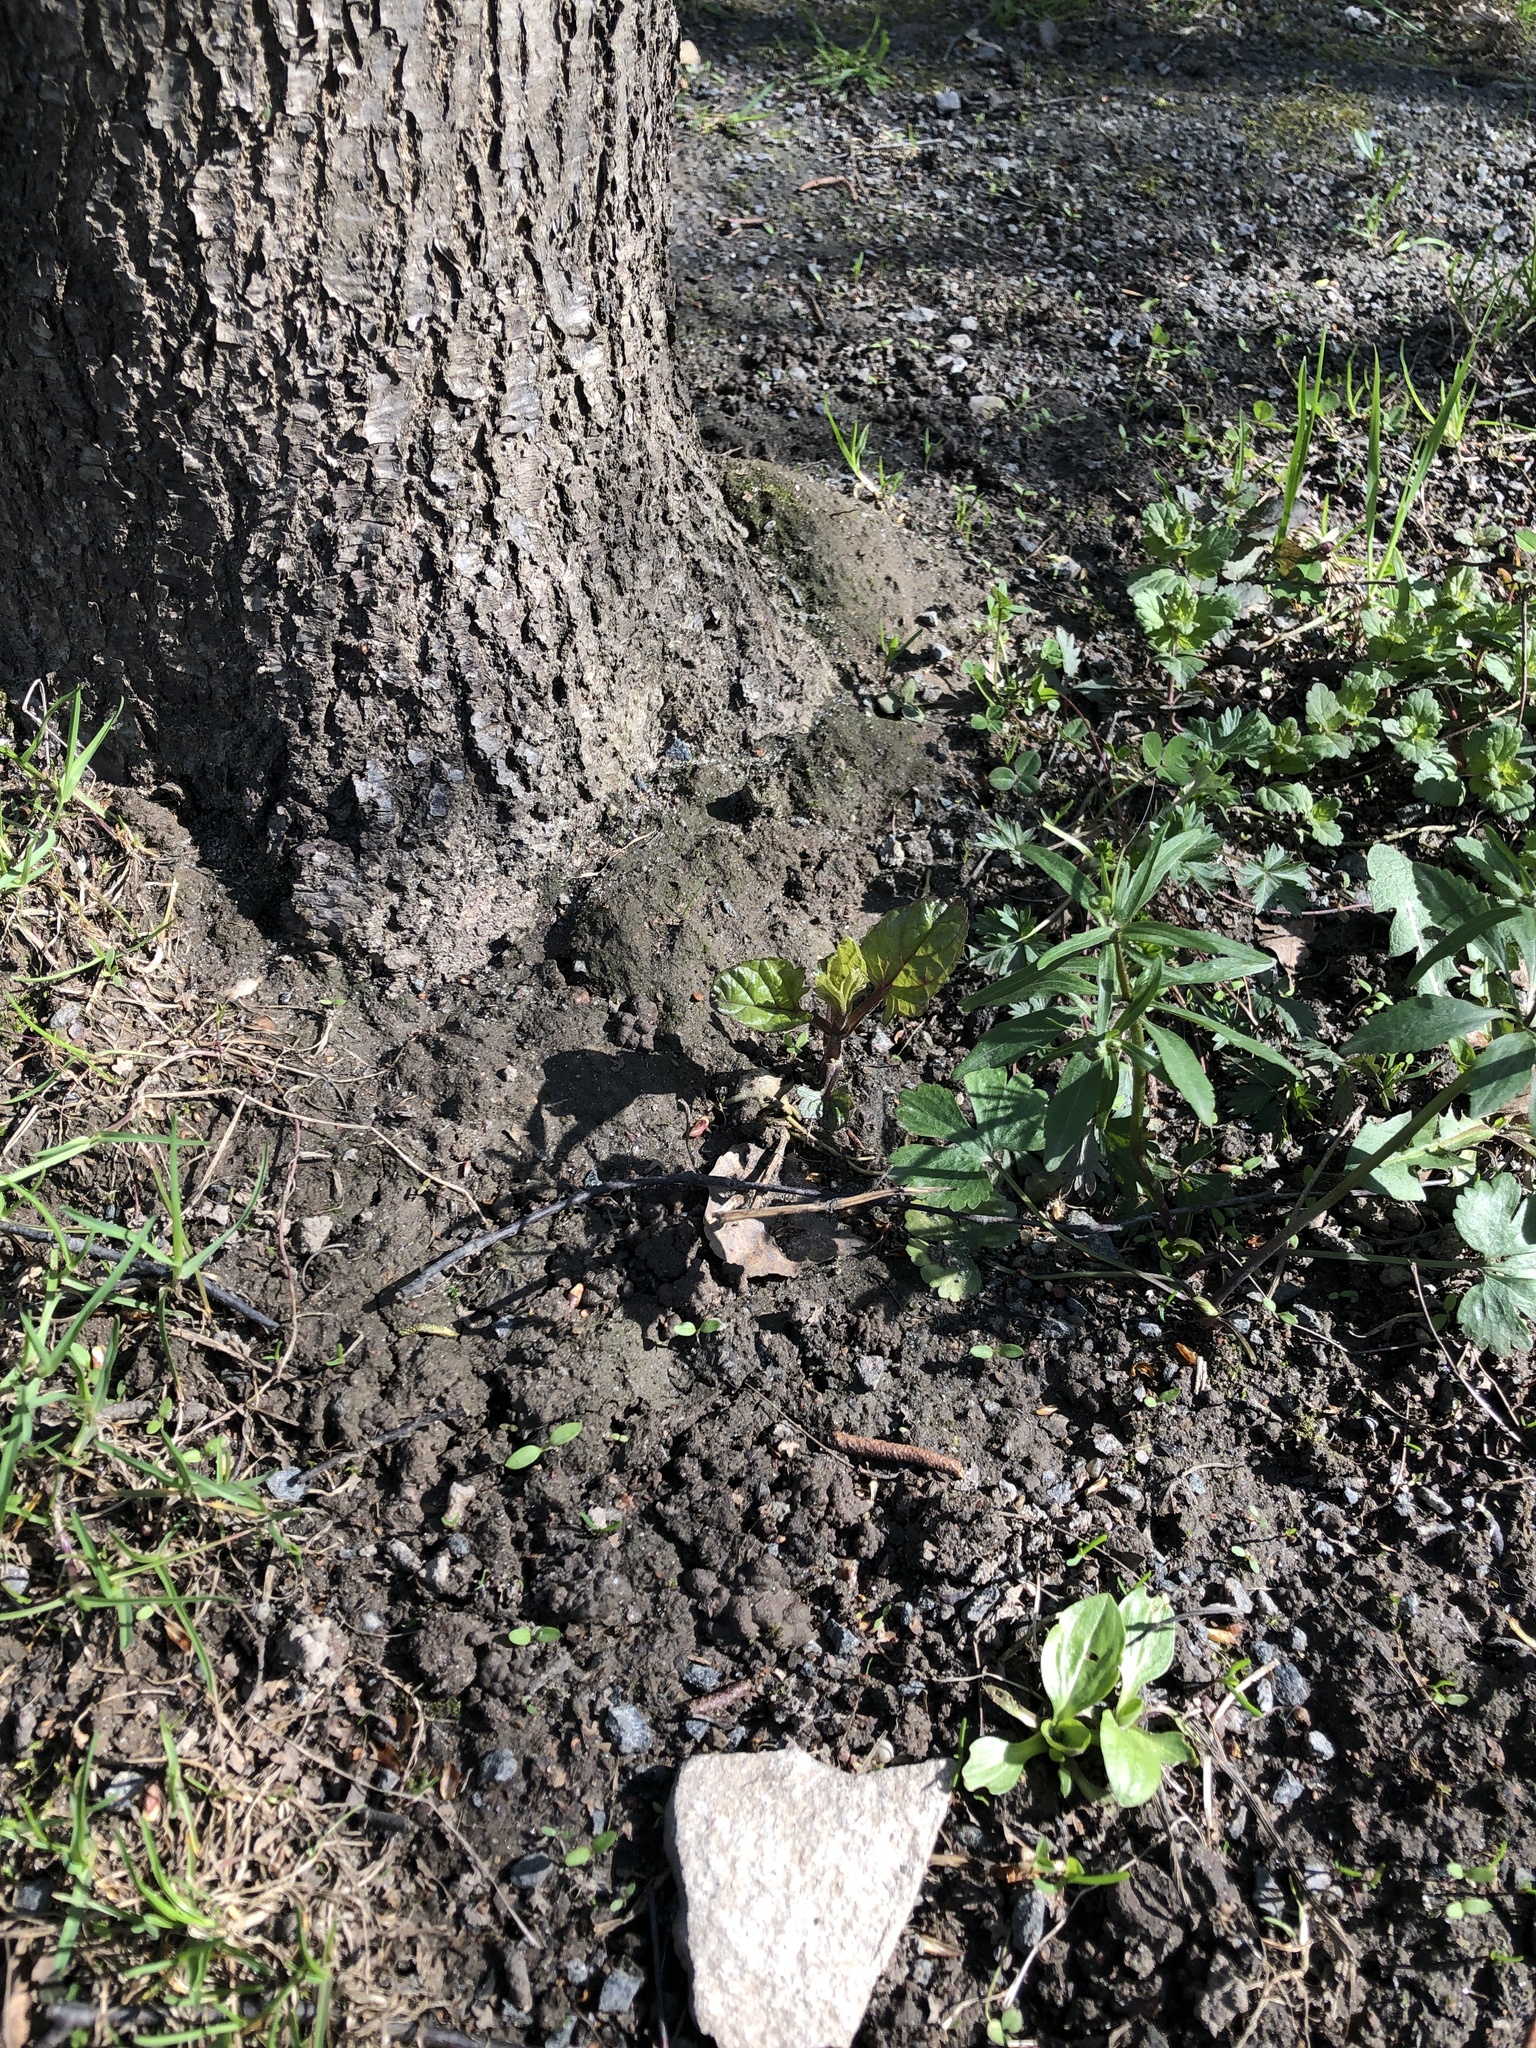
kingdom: Plantae
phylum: Tracheophyta
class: Magnoliopsida
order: Lamiales
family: Scrophulariaceae
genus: Scrophularia
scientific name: Scrophularia nodosa
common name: Common figwort
